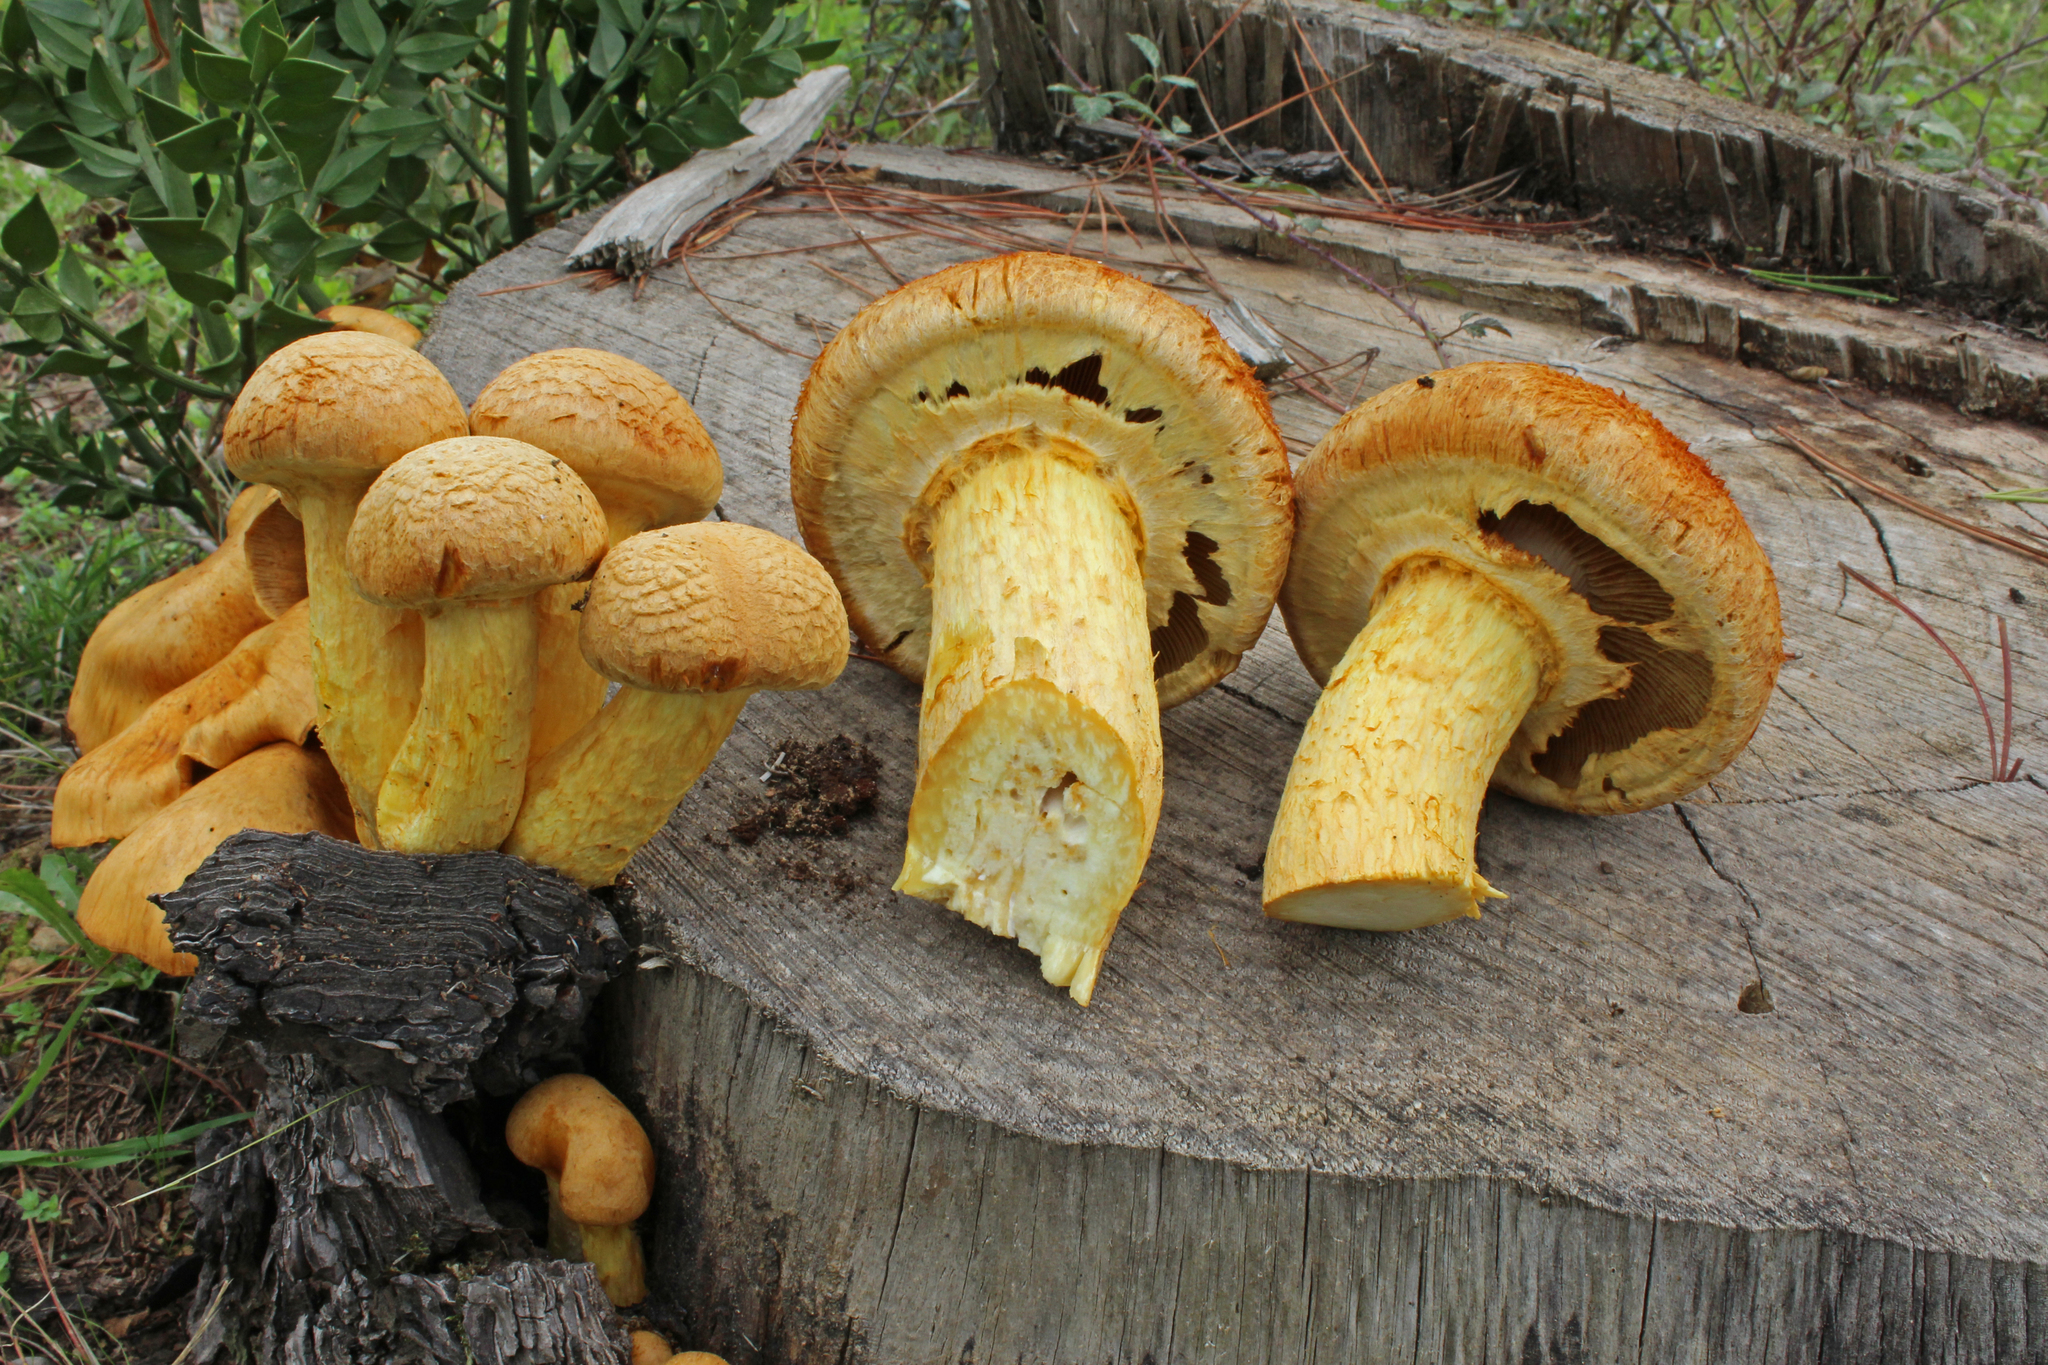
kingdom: Fungi
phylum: Basidiomycota
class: Agaricomycetes
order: Agaricales
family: Hymenogastraceae
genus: Gymnopilus
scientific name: Gymnopilus junonius
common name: Spectacular rustgill
